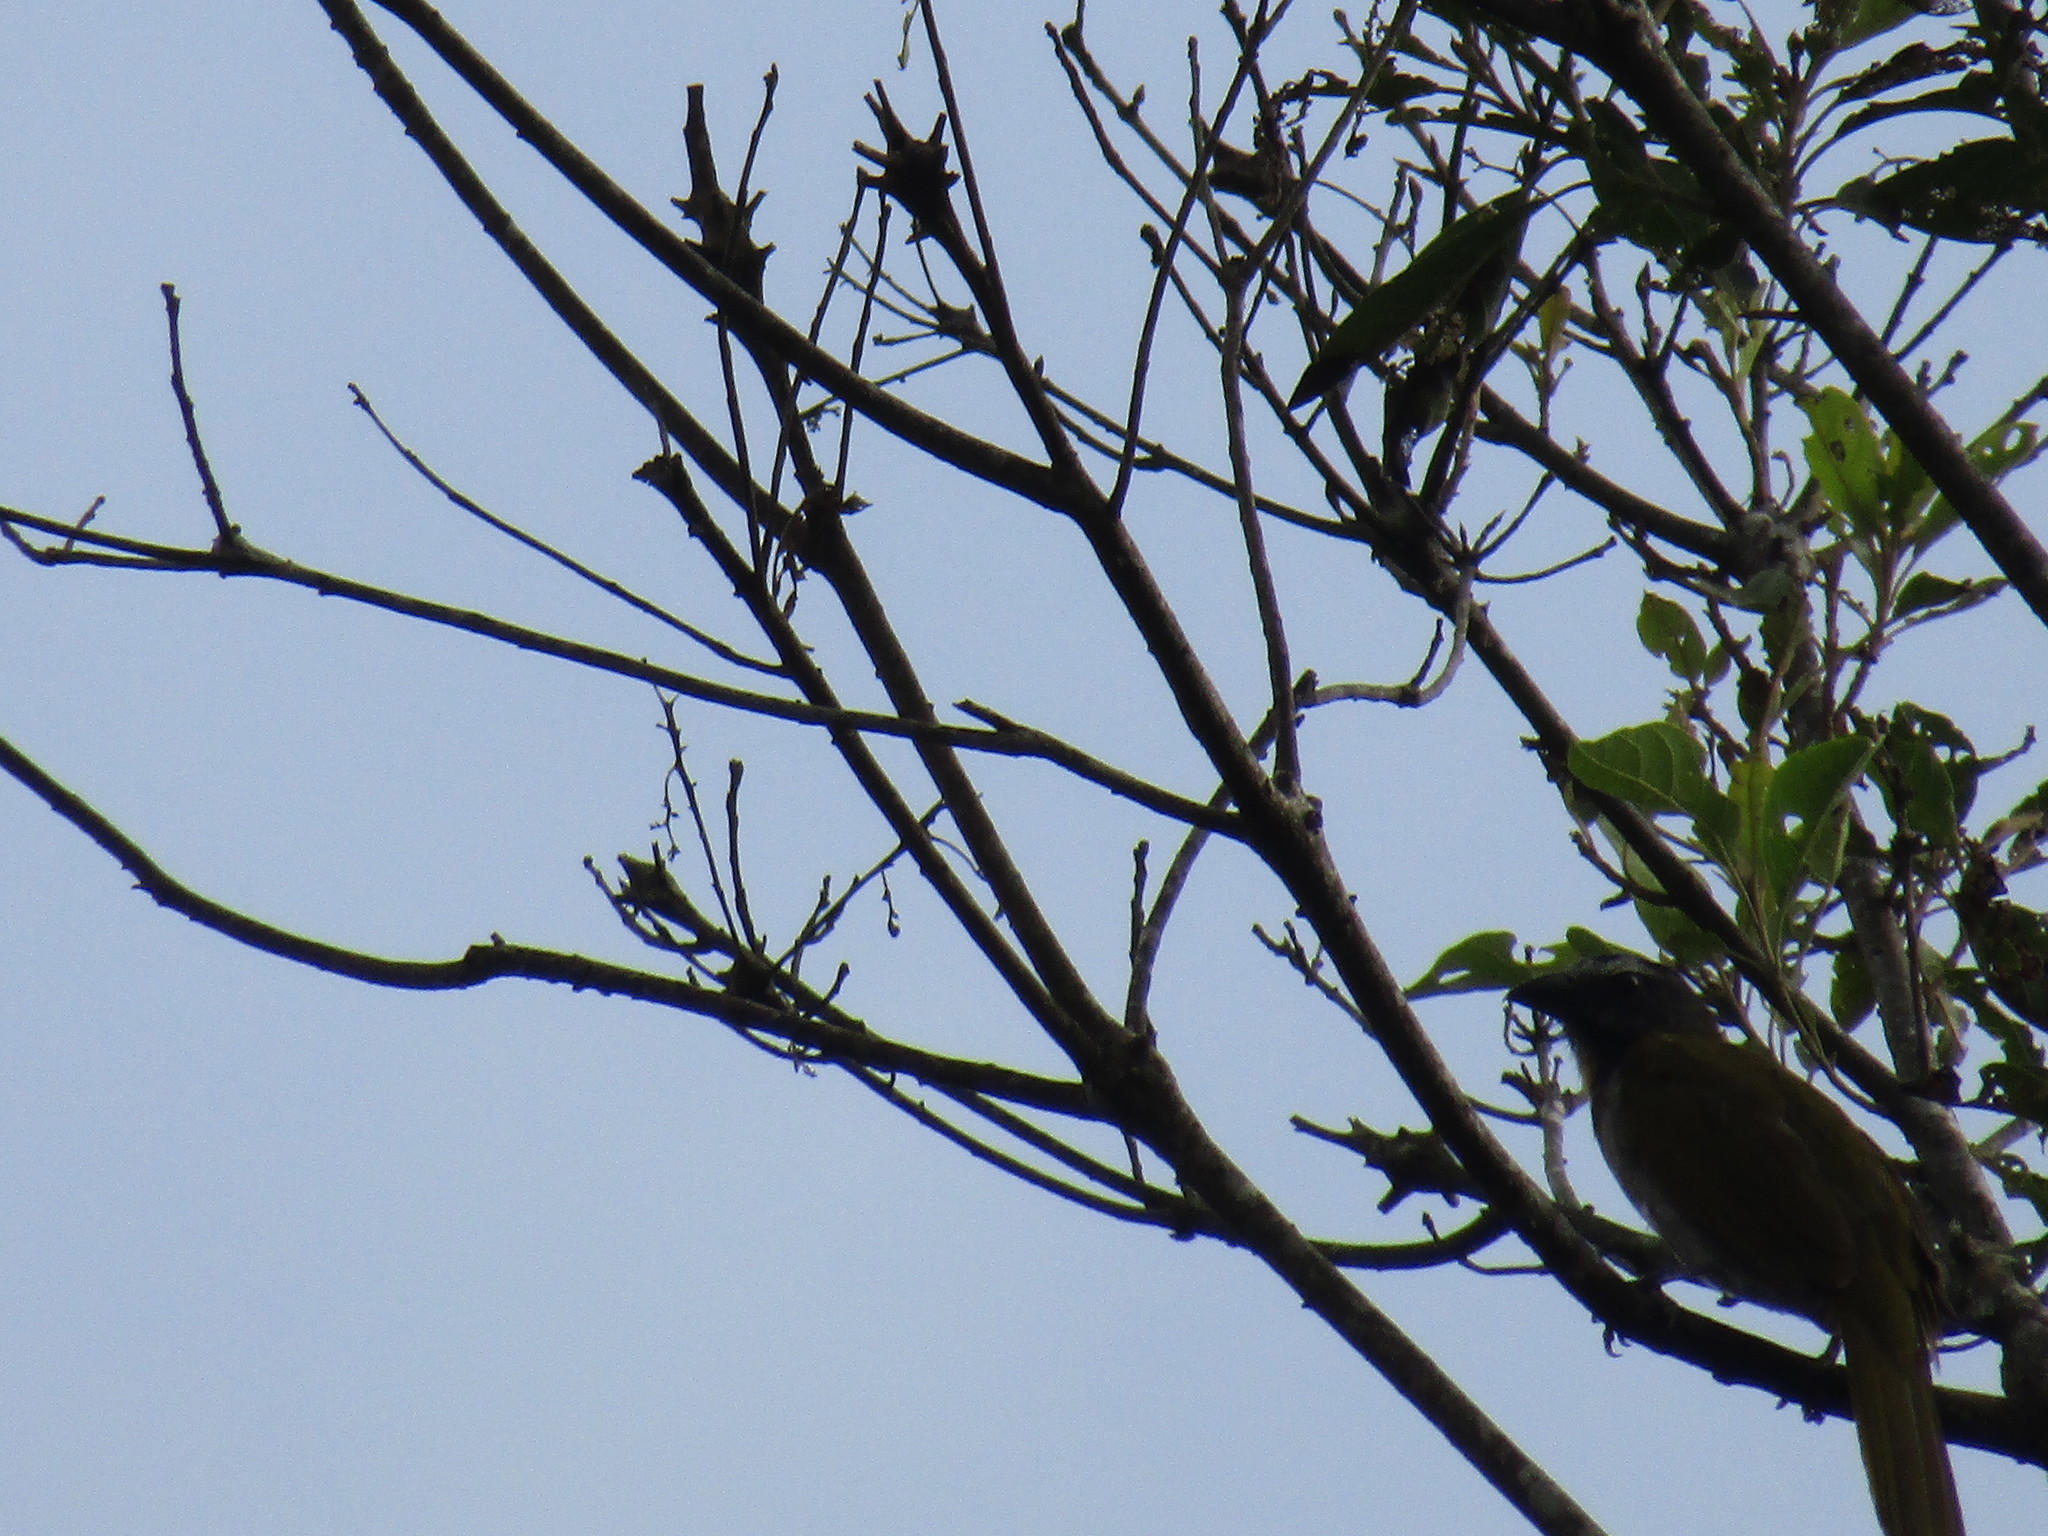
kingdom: Animalia
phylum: Chordata
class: Aves
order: Passeriformes
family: Thraupidae
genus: Saltator
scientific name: Saltator maximus
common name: Buff-throated saltator
